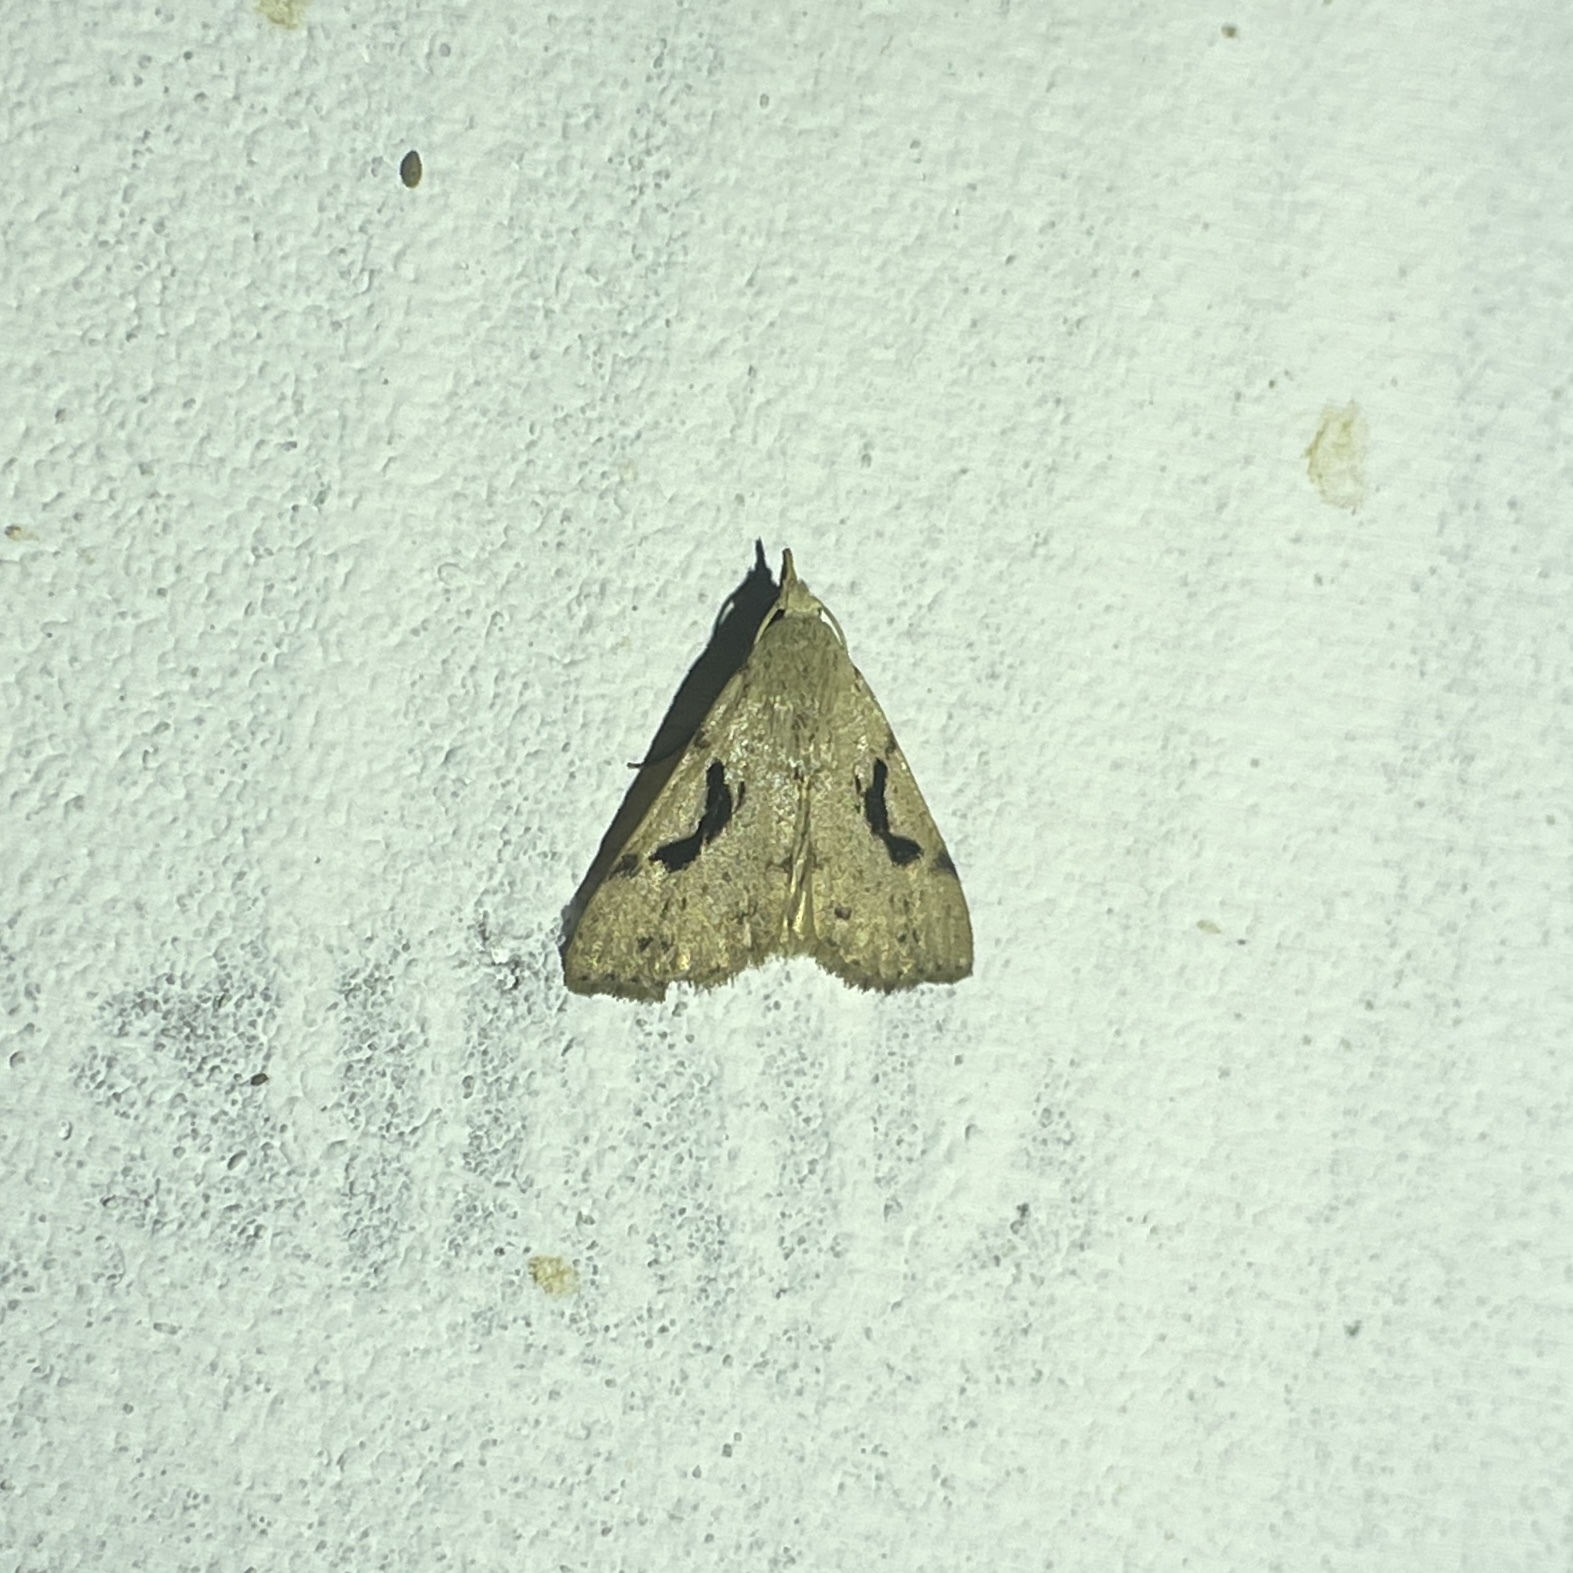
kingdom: Animalia
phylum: Arthropoda
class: Insecta
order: Lepidoptera
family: Erebidae
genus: Acanthermia
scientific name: Acanthermia concatenalis
